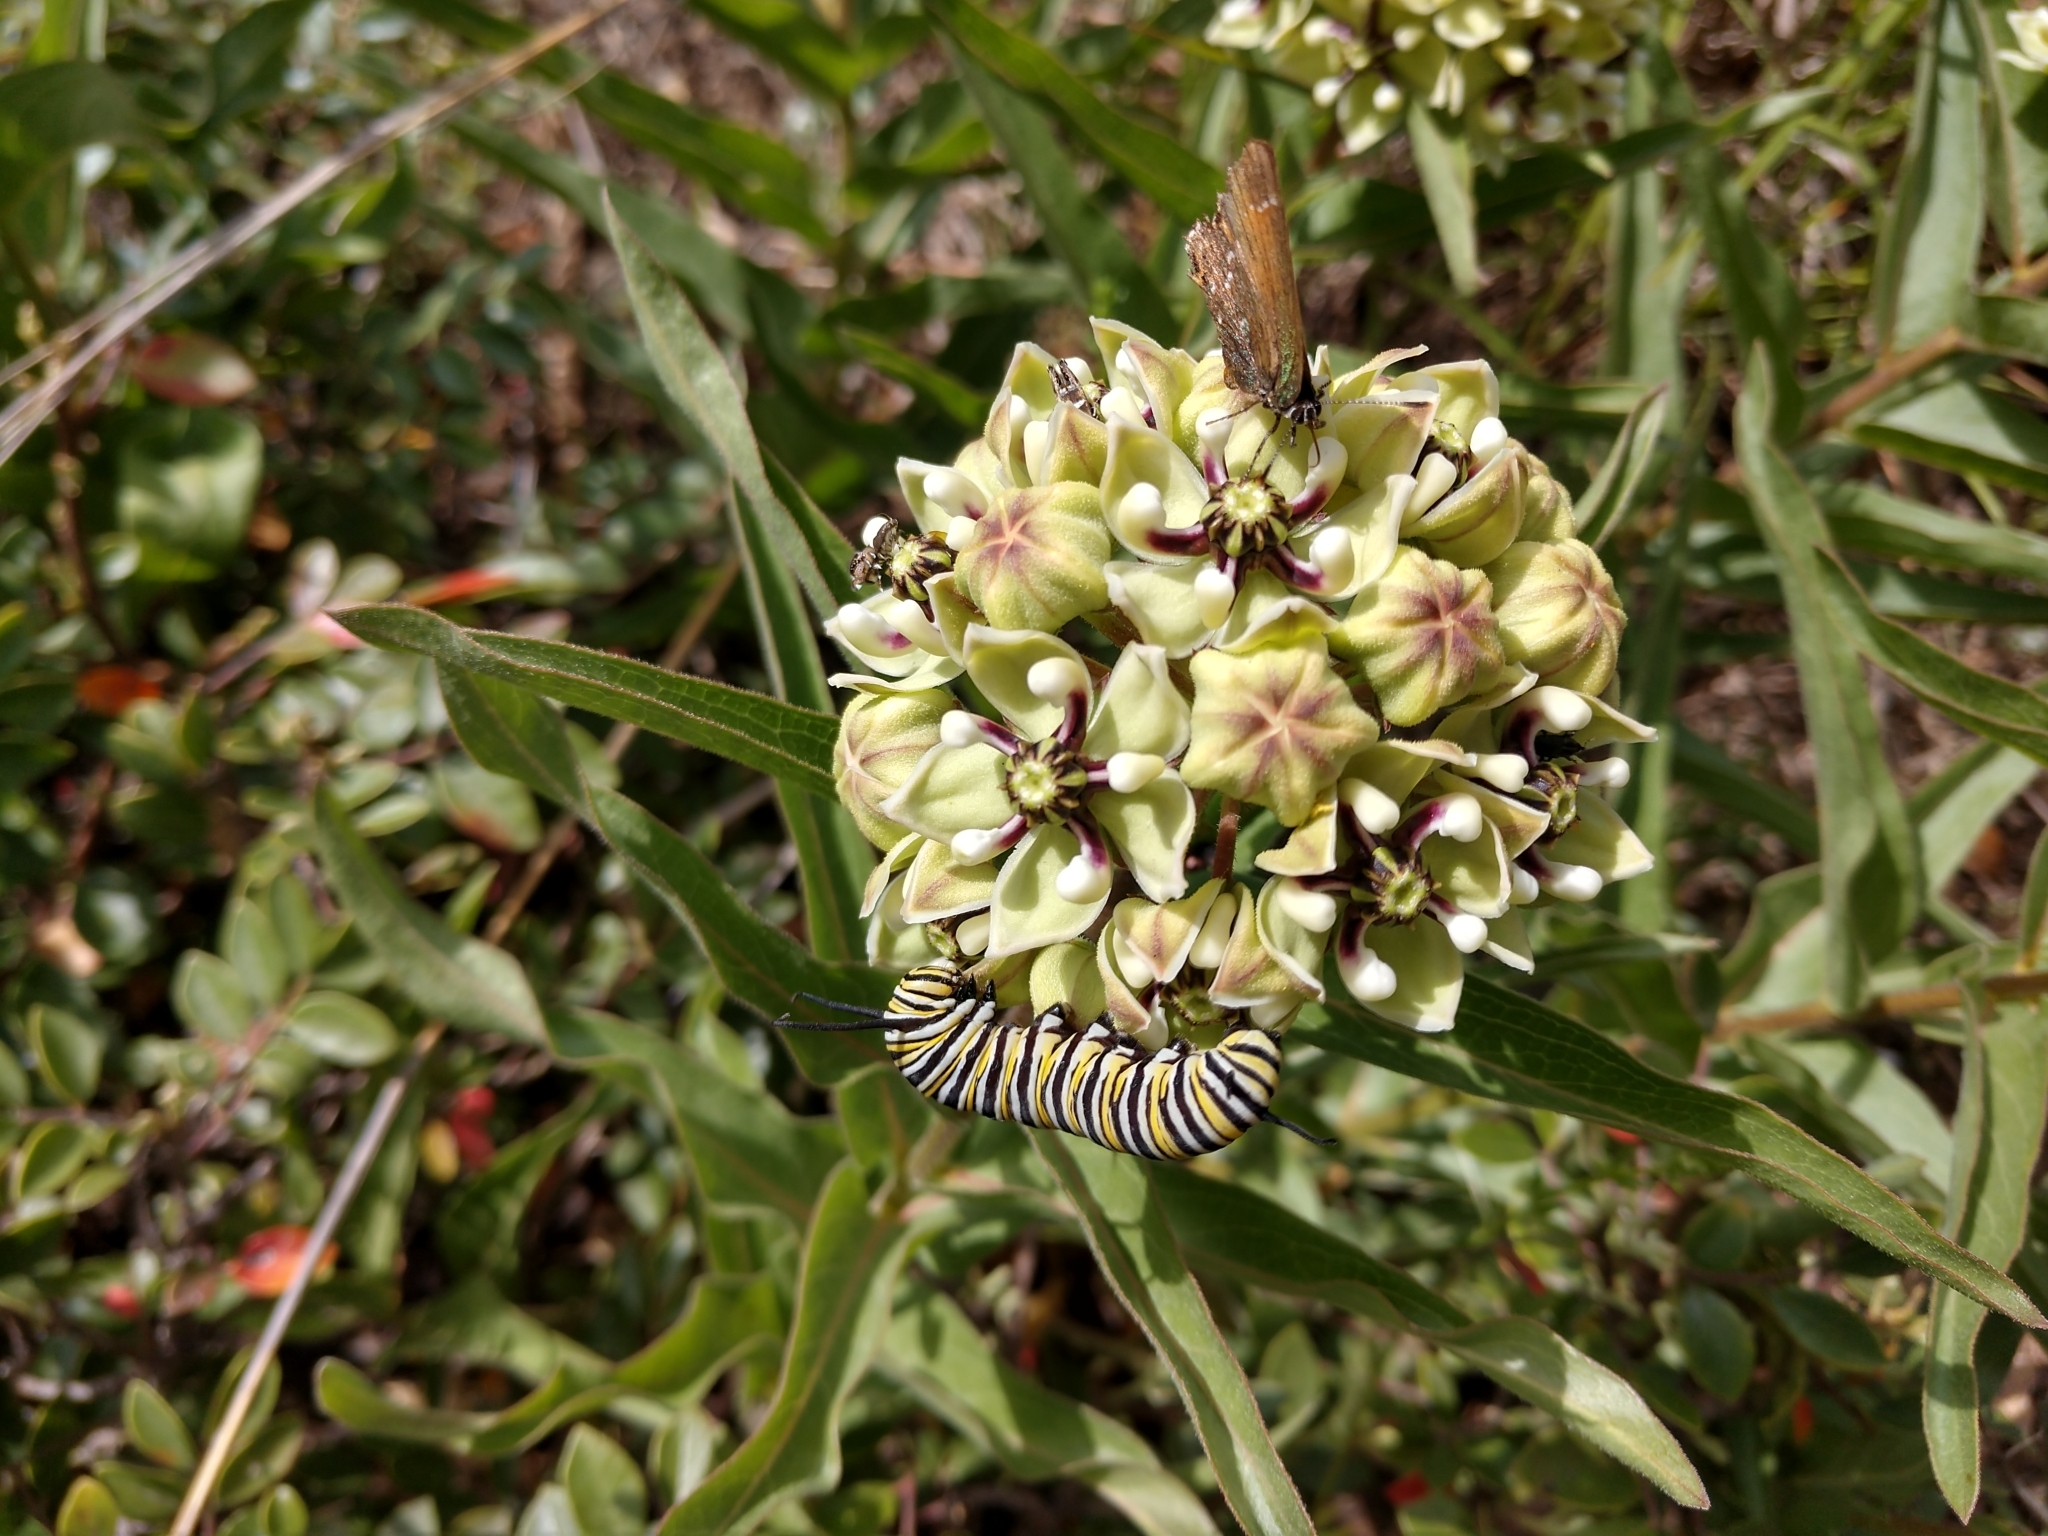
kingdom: Plantae
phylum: Tracheophyta
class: Magnoliopsida
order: Gentianales
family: Apocynaceae
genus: Asclepias
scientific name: Asclepias asperula
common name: Antelope horns
